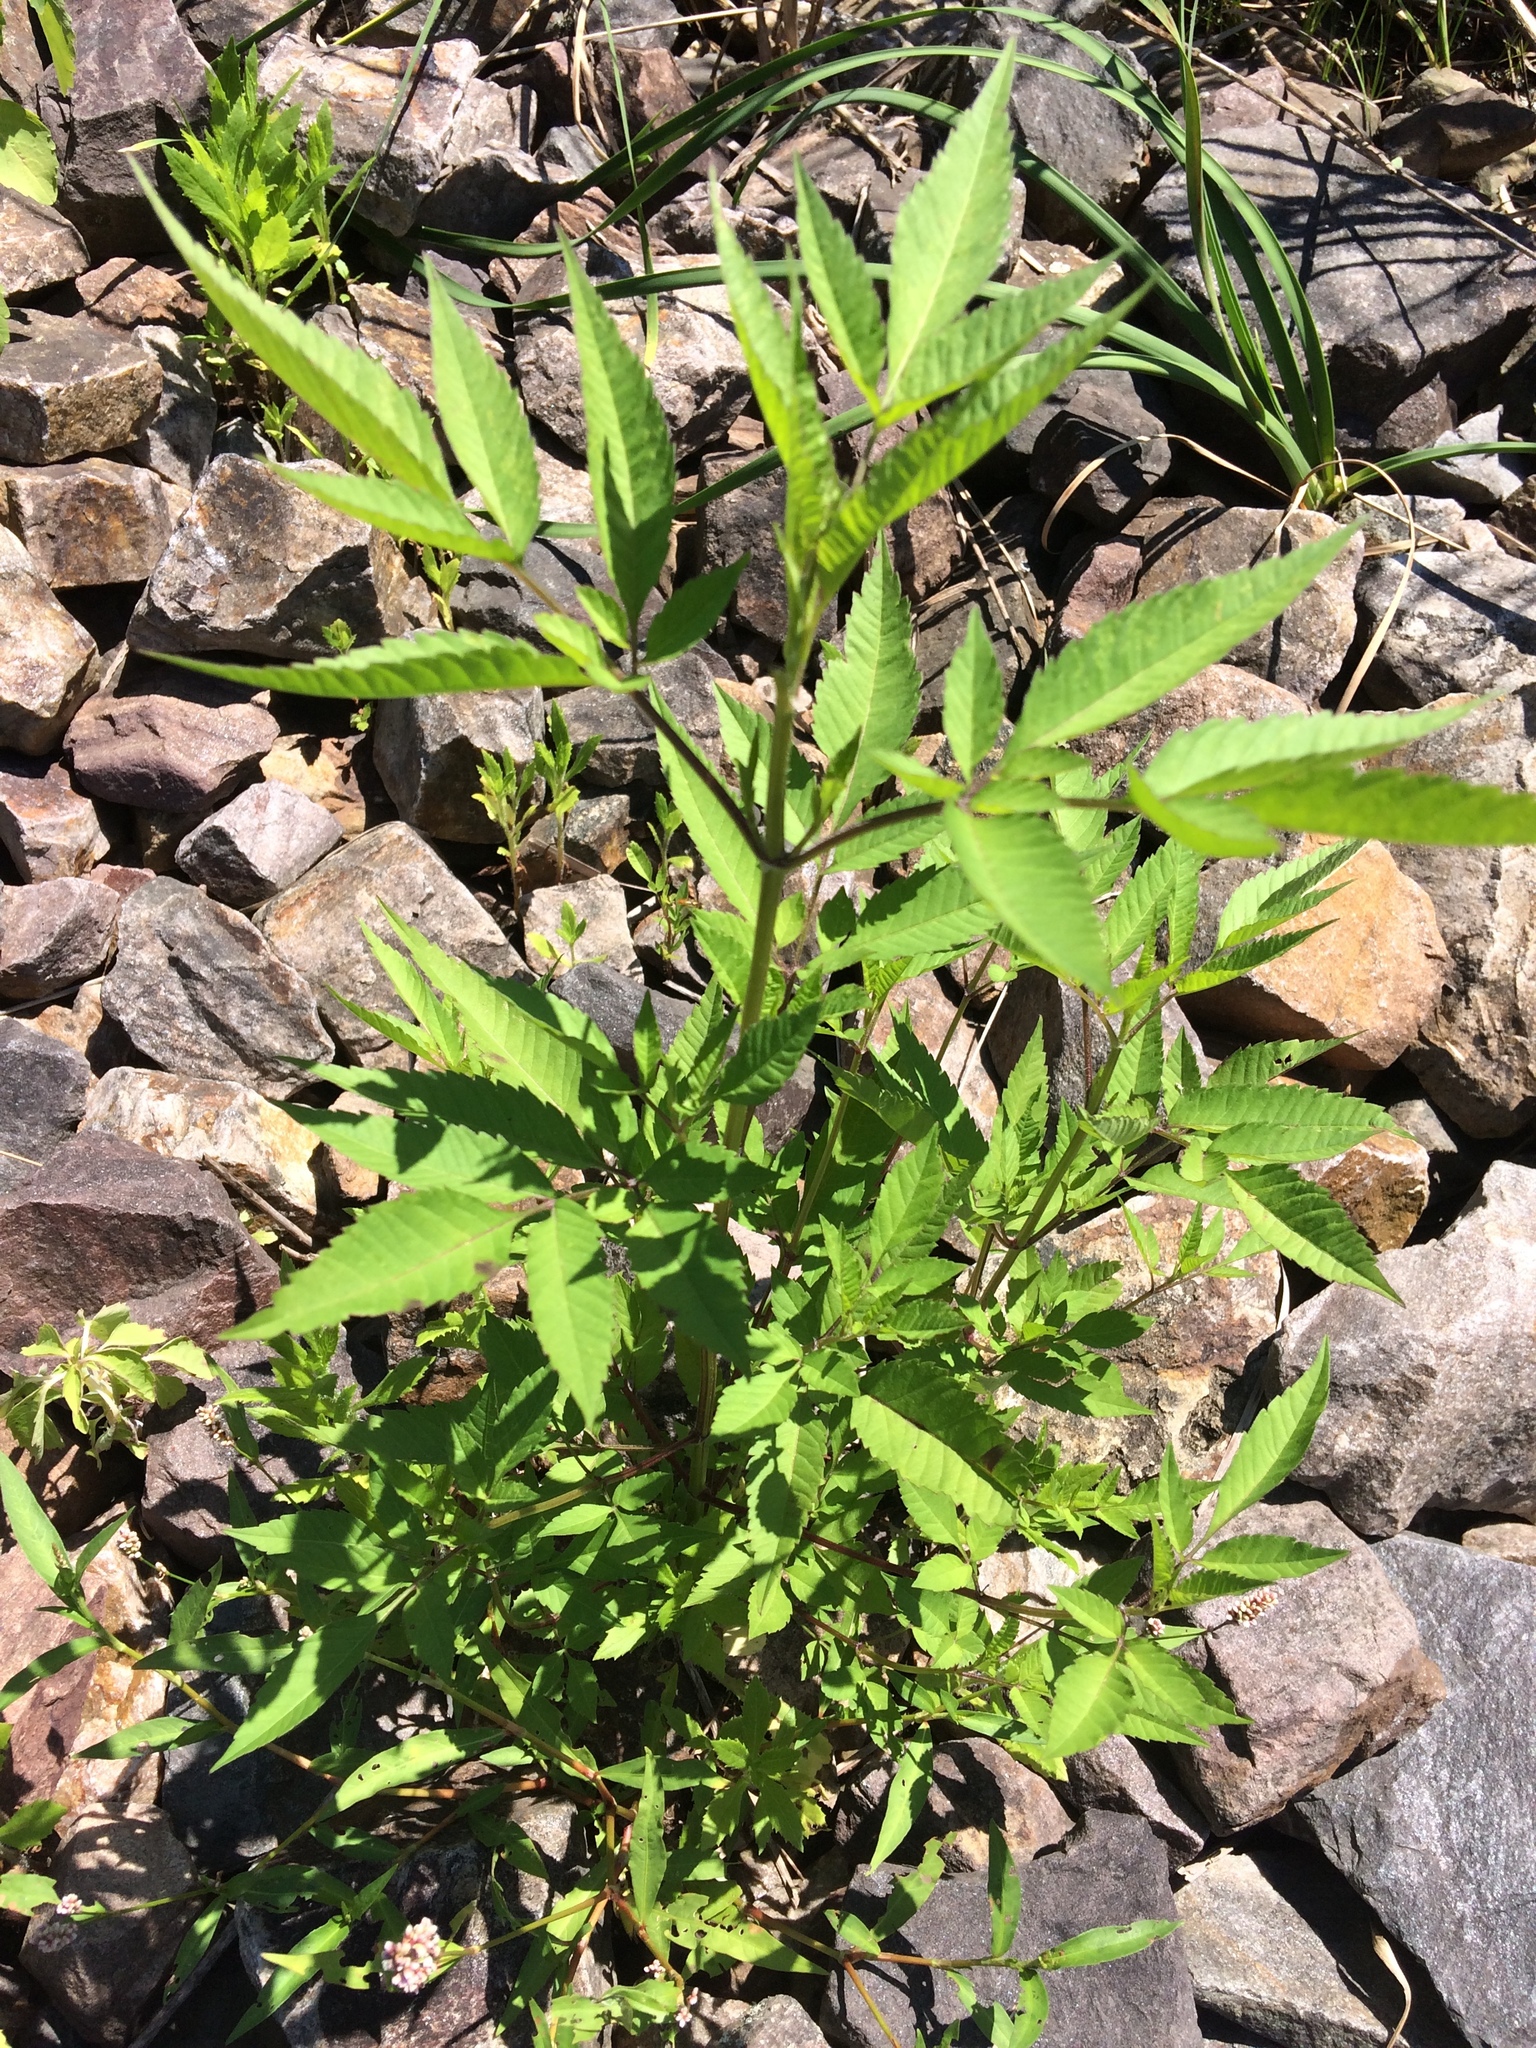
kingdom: Plantae
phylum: Tracheophyta
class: Magnoliopsida
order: Asterales
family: Asteraceae
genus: Bidens
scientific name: Bidens frondosa
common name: Beggarticks
